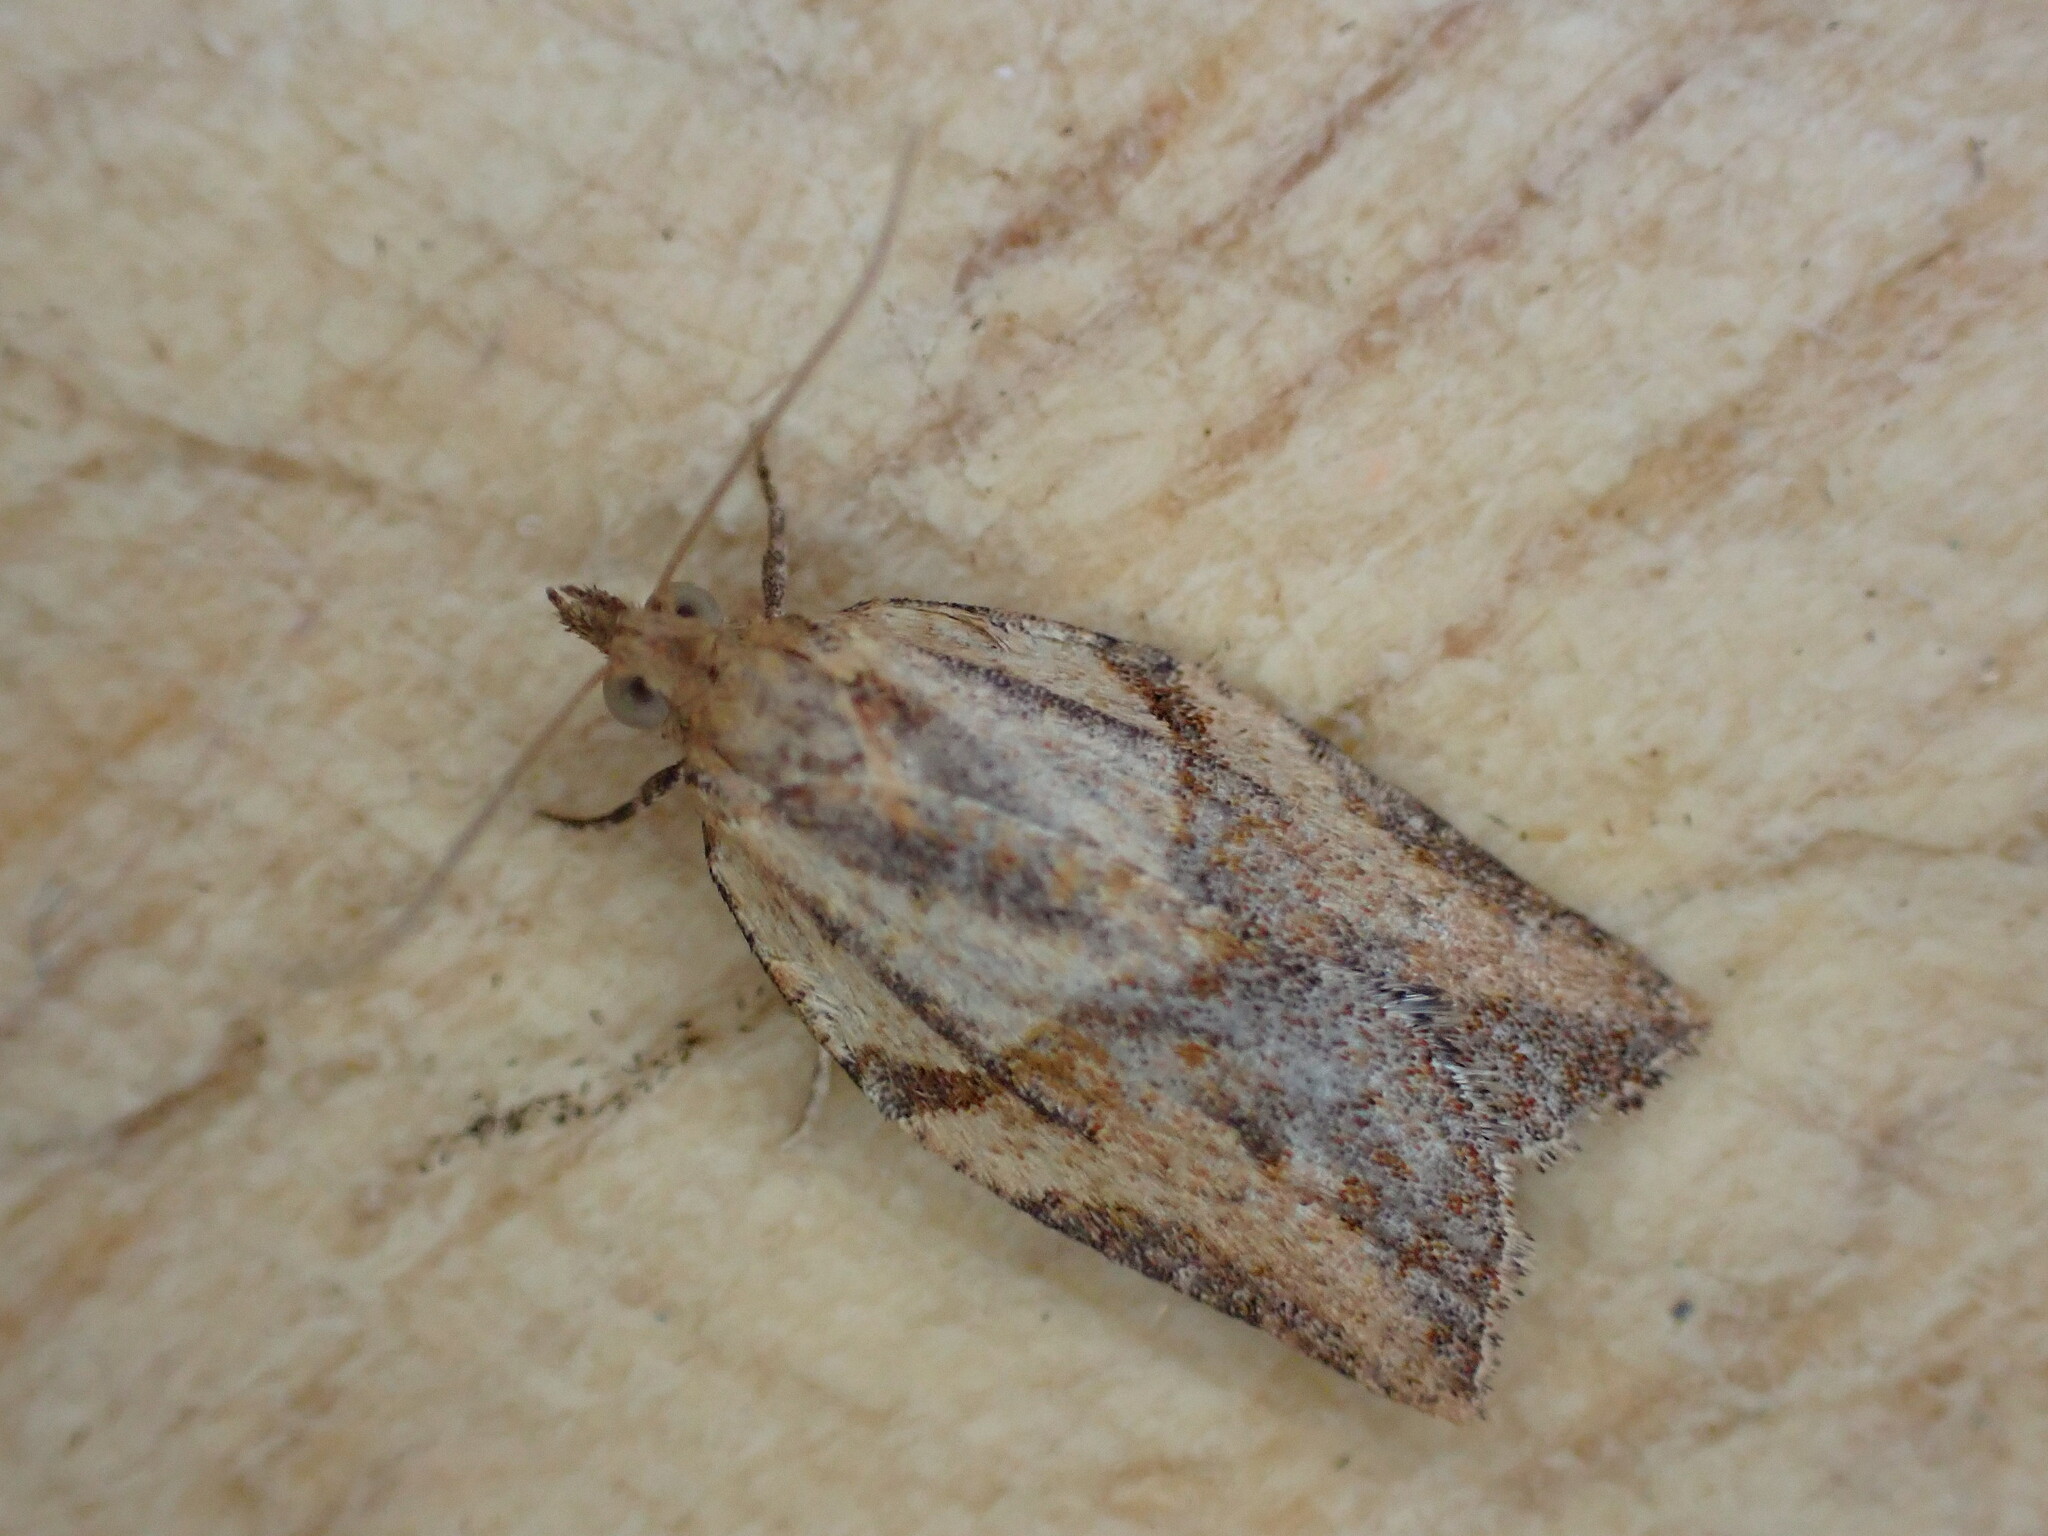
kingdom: Animalia
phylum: Arthropoda
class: Insecta
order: Lepidoptera
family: Tortricidae
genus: Epiphyas
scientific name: Epiphyas postvittana
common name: Light brown apple moth
